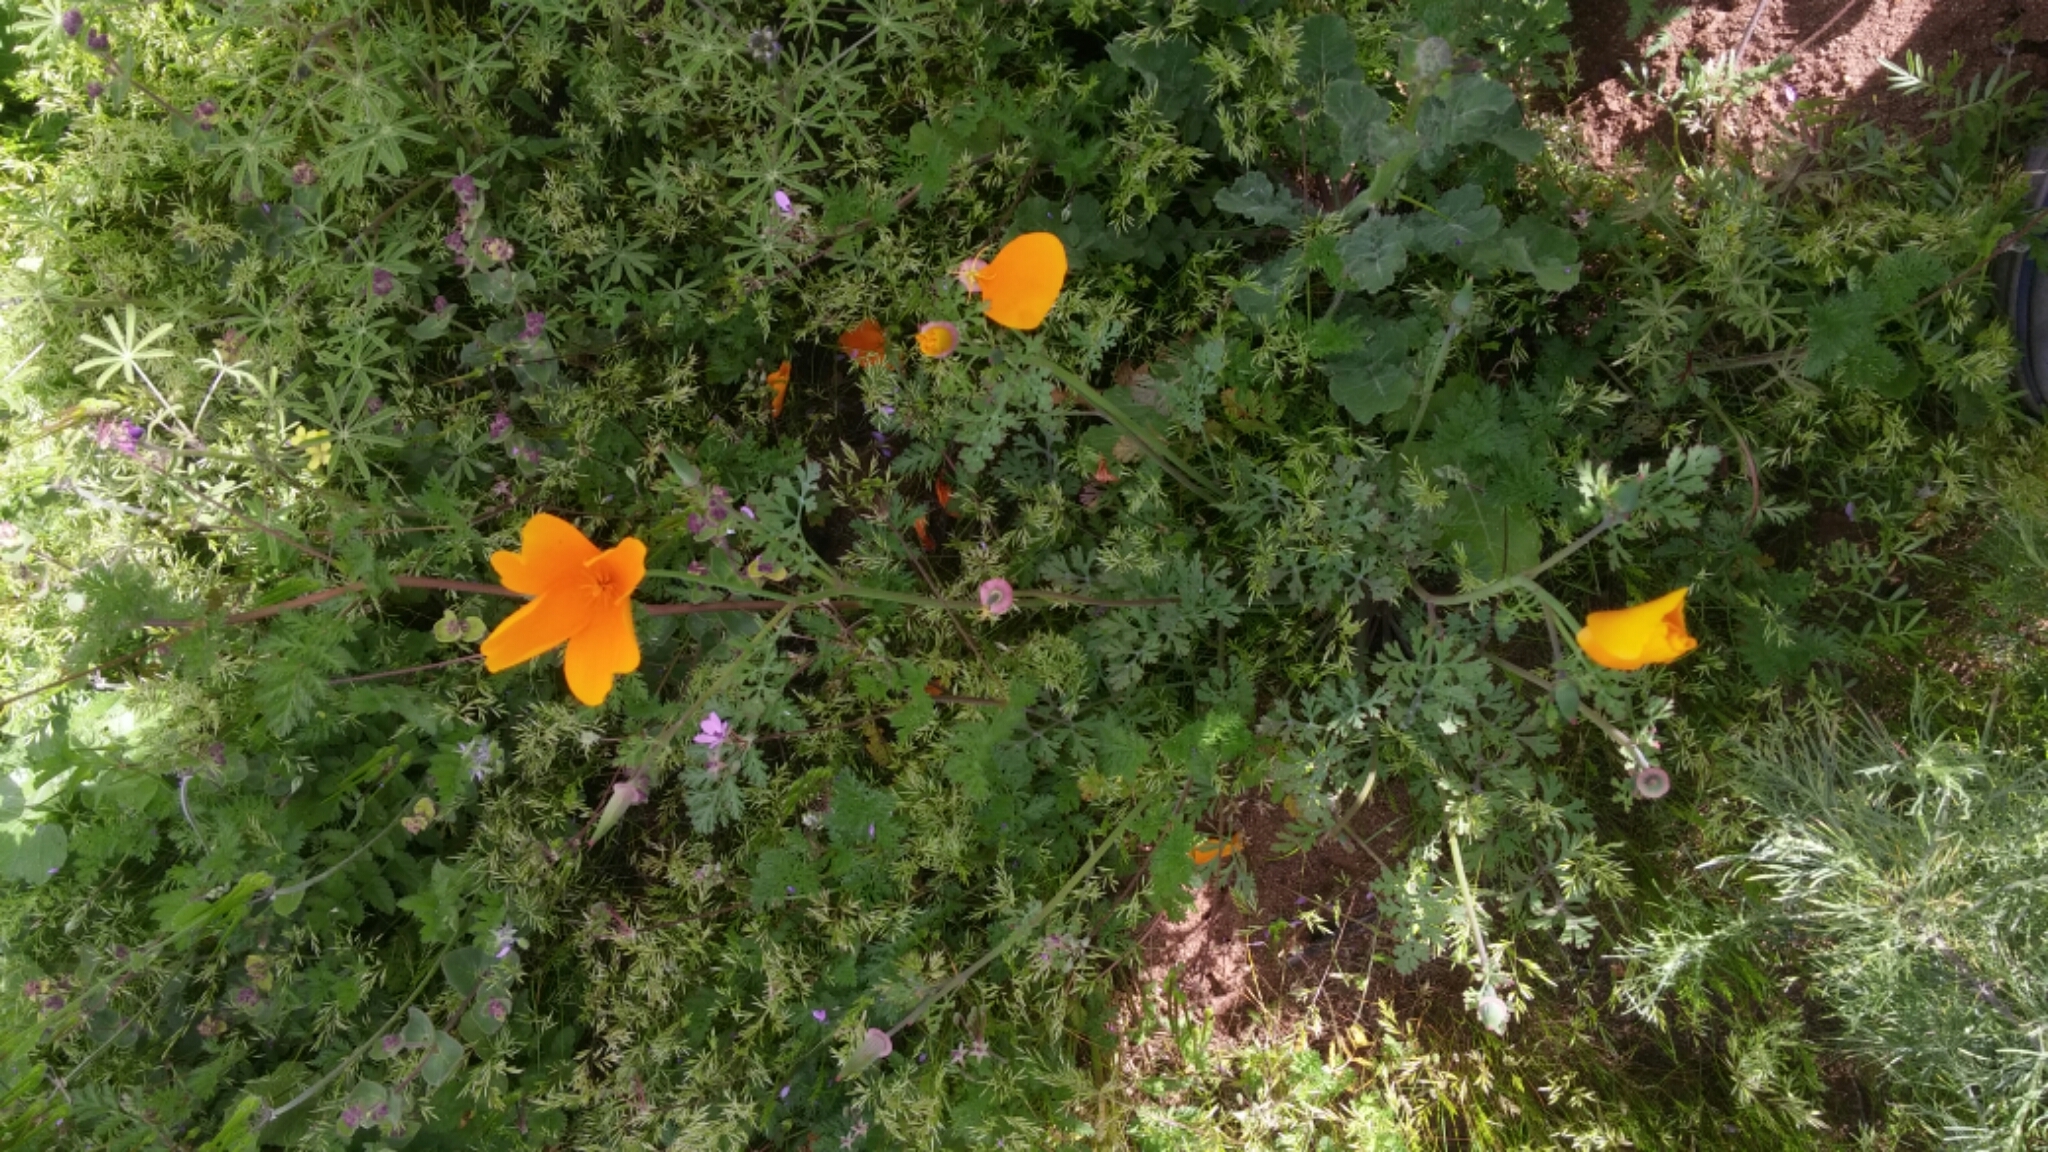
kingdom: Plantae
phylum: Tracheophyta
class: Magnoliopsida
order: Ranunculales
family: Papaveraceae
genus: Eschscholzia
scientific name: Eschscholzia californica
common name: California poppy
